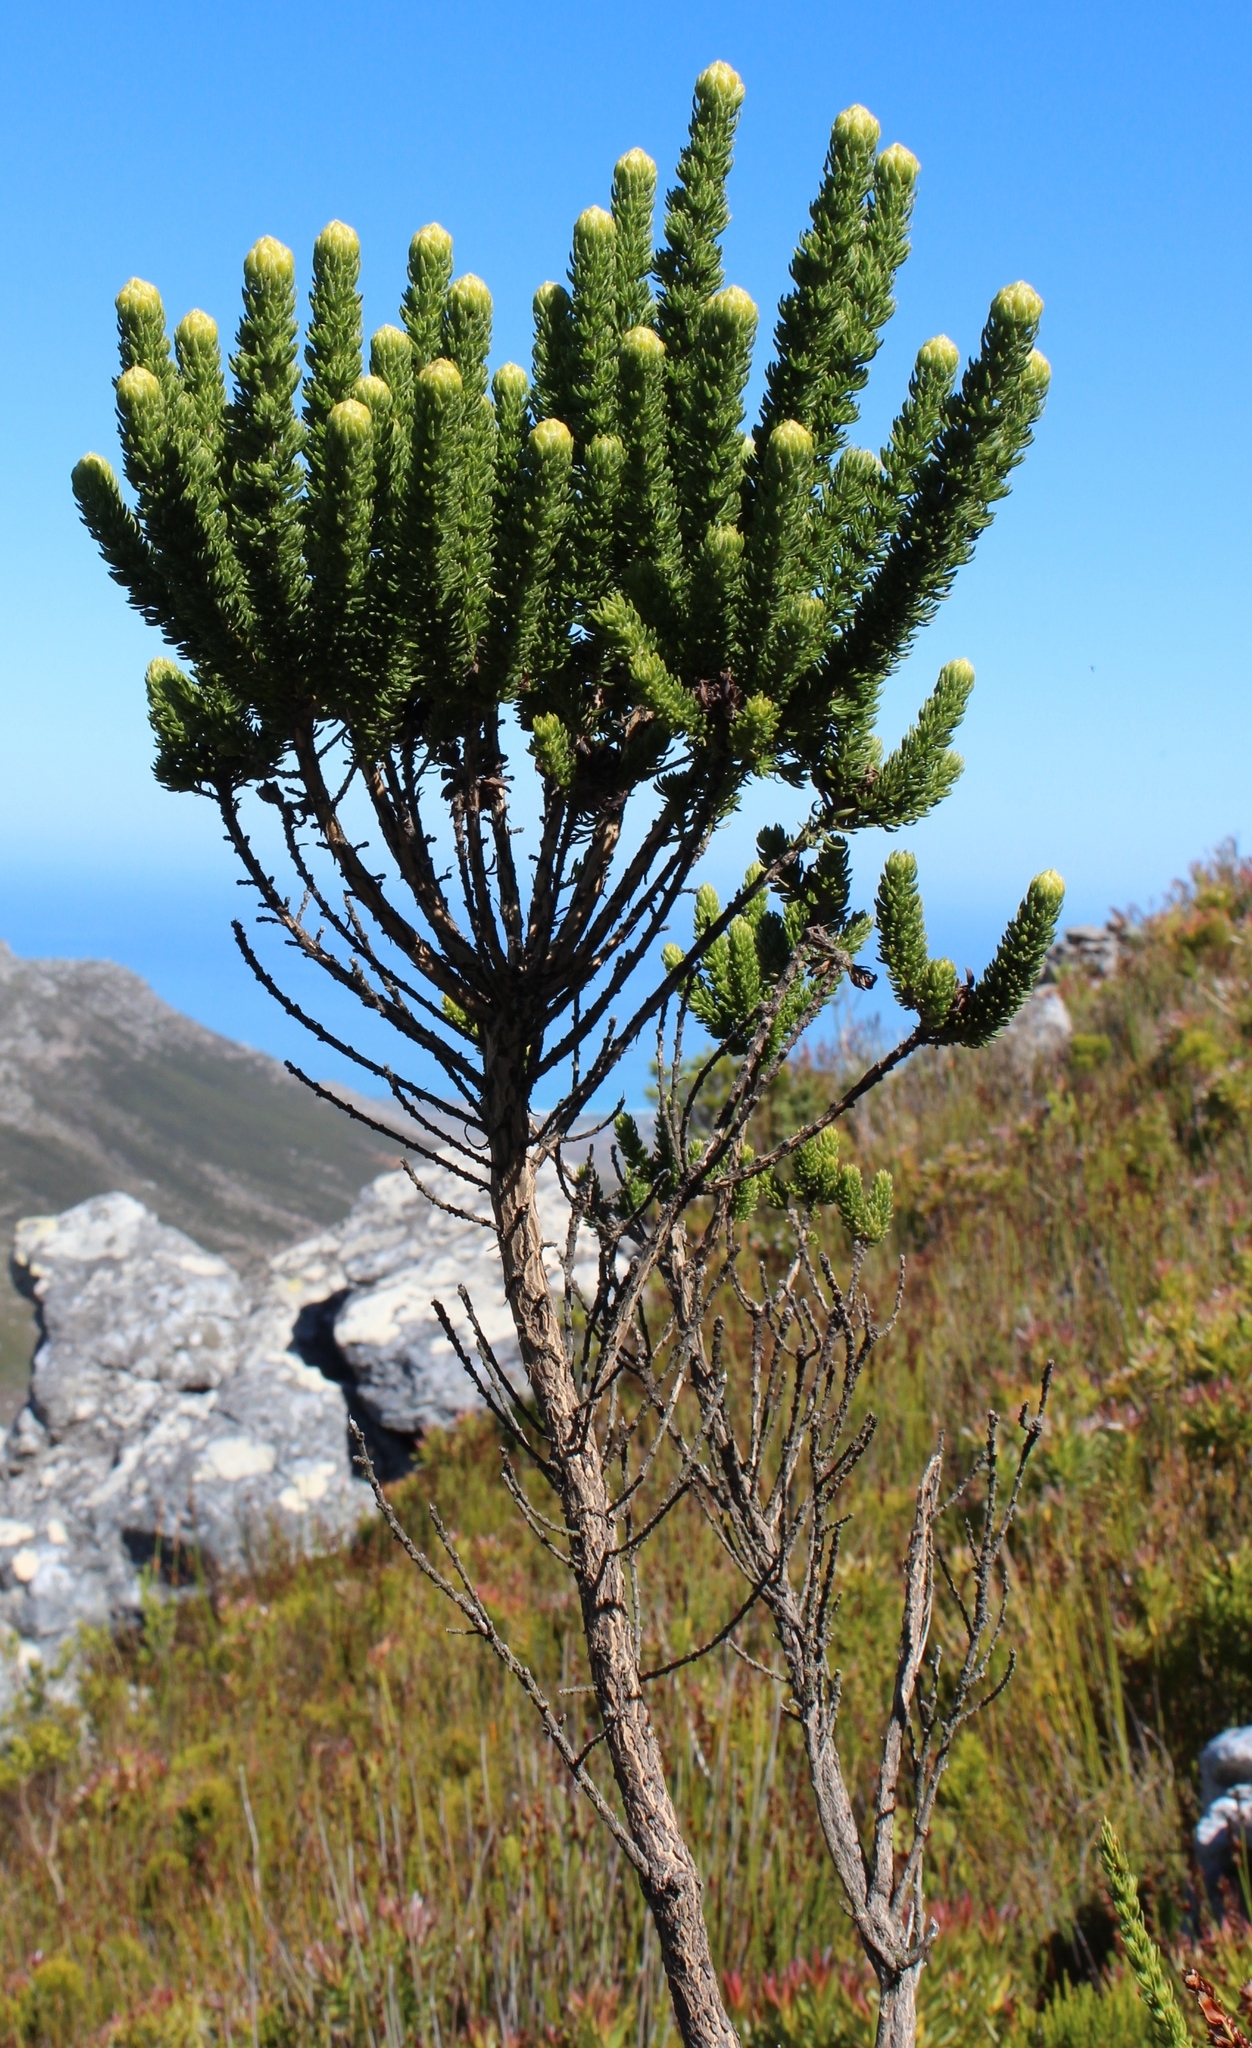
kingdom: Plantae
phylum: Tracheophyta
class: Magnoliopsida
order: Fabales
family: Fabaceae
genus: Aspalathus
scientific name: Aspalathus capitata
